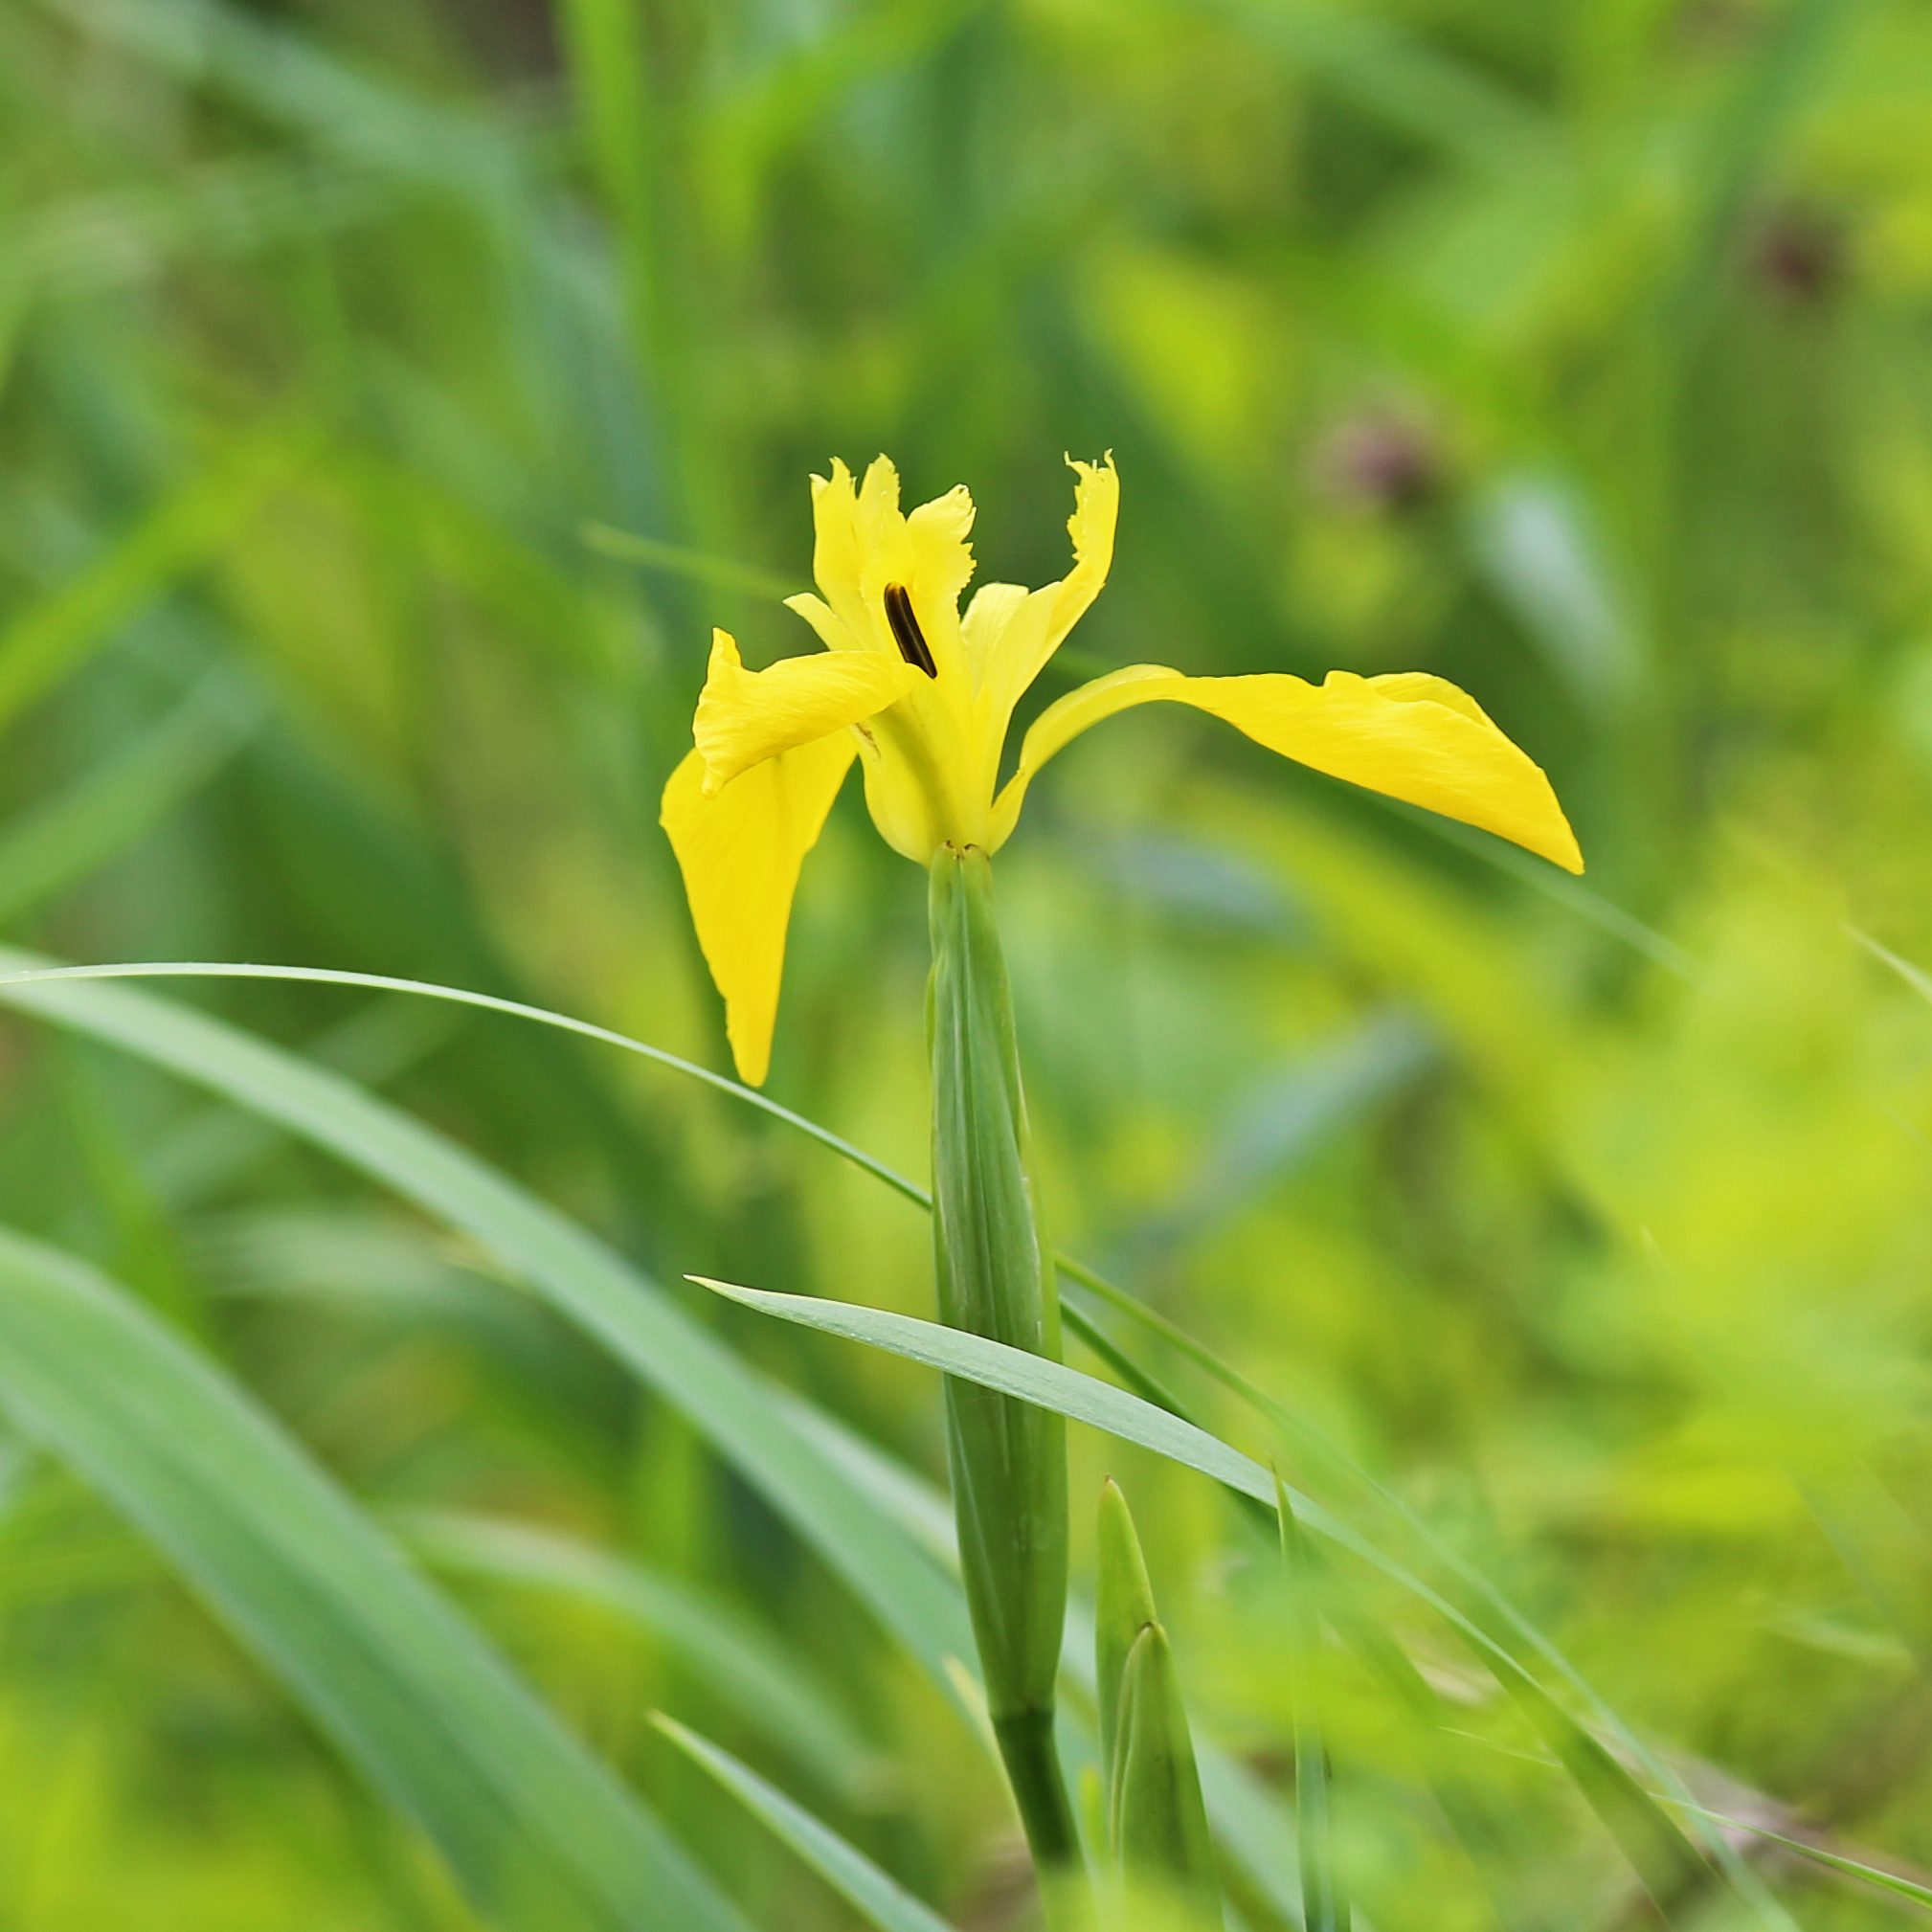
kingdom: Plantae
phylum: Tracheophyta
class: Liliopsida
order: Asparagales
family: Iridaceae
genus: Iris
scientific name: Iris pseudacorus
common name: Yellow flag
